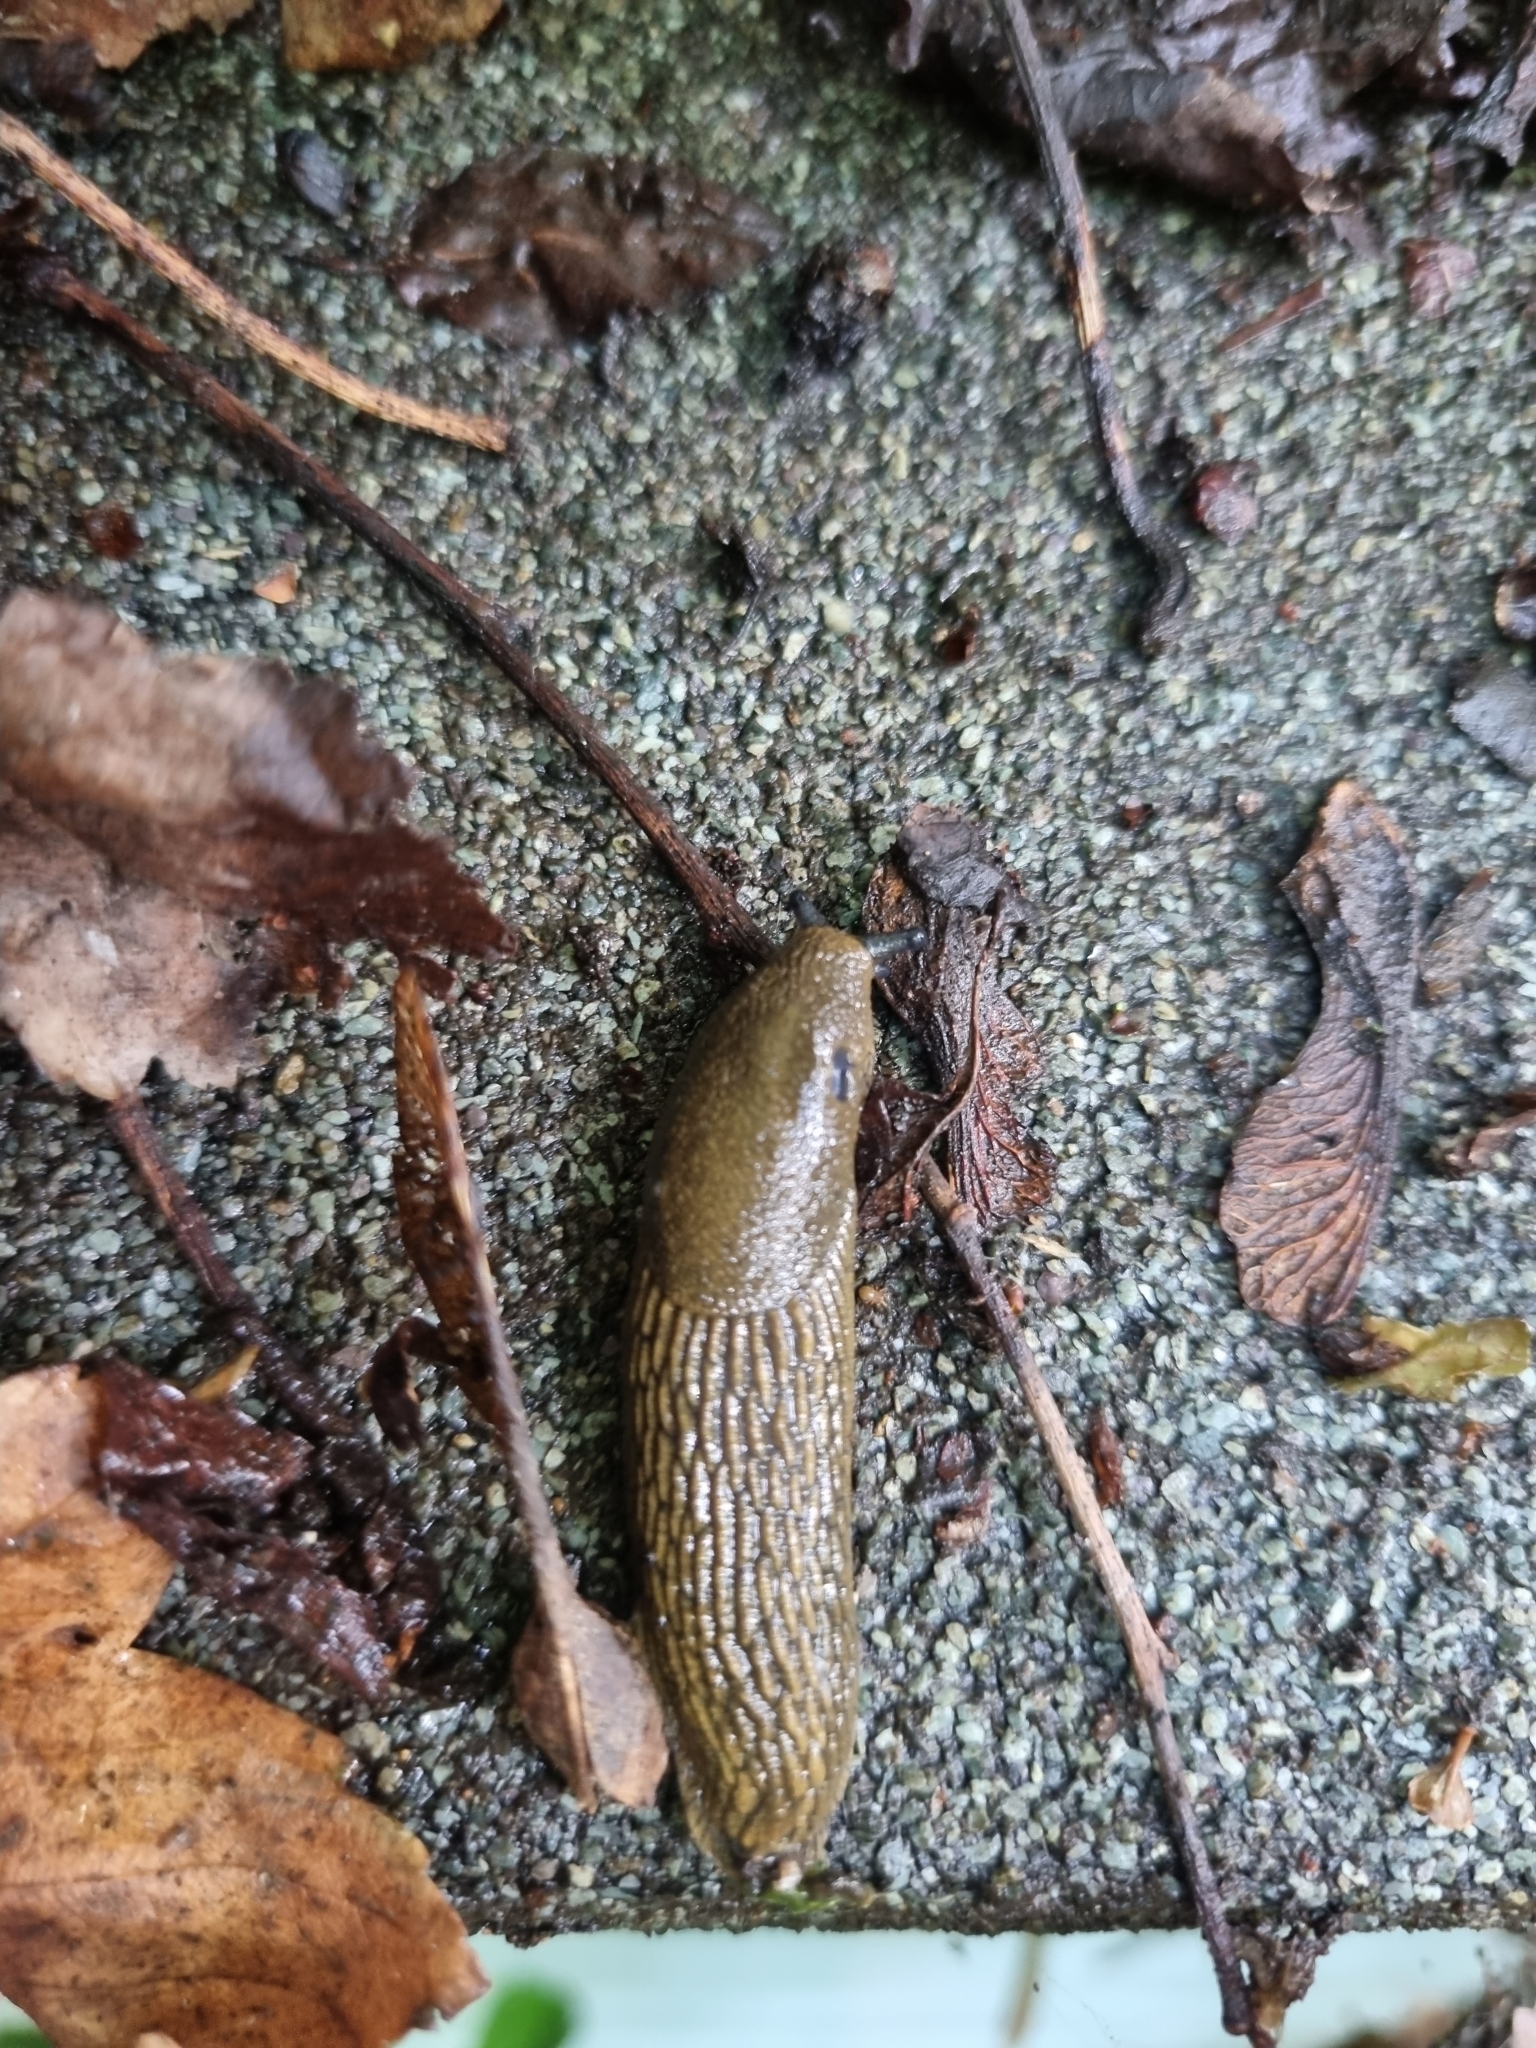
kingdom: Animalia
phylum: Mollusca
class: Gastropoda
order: Stylommatophora
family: Arionidae
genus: Arion
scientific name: Arion
